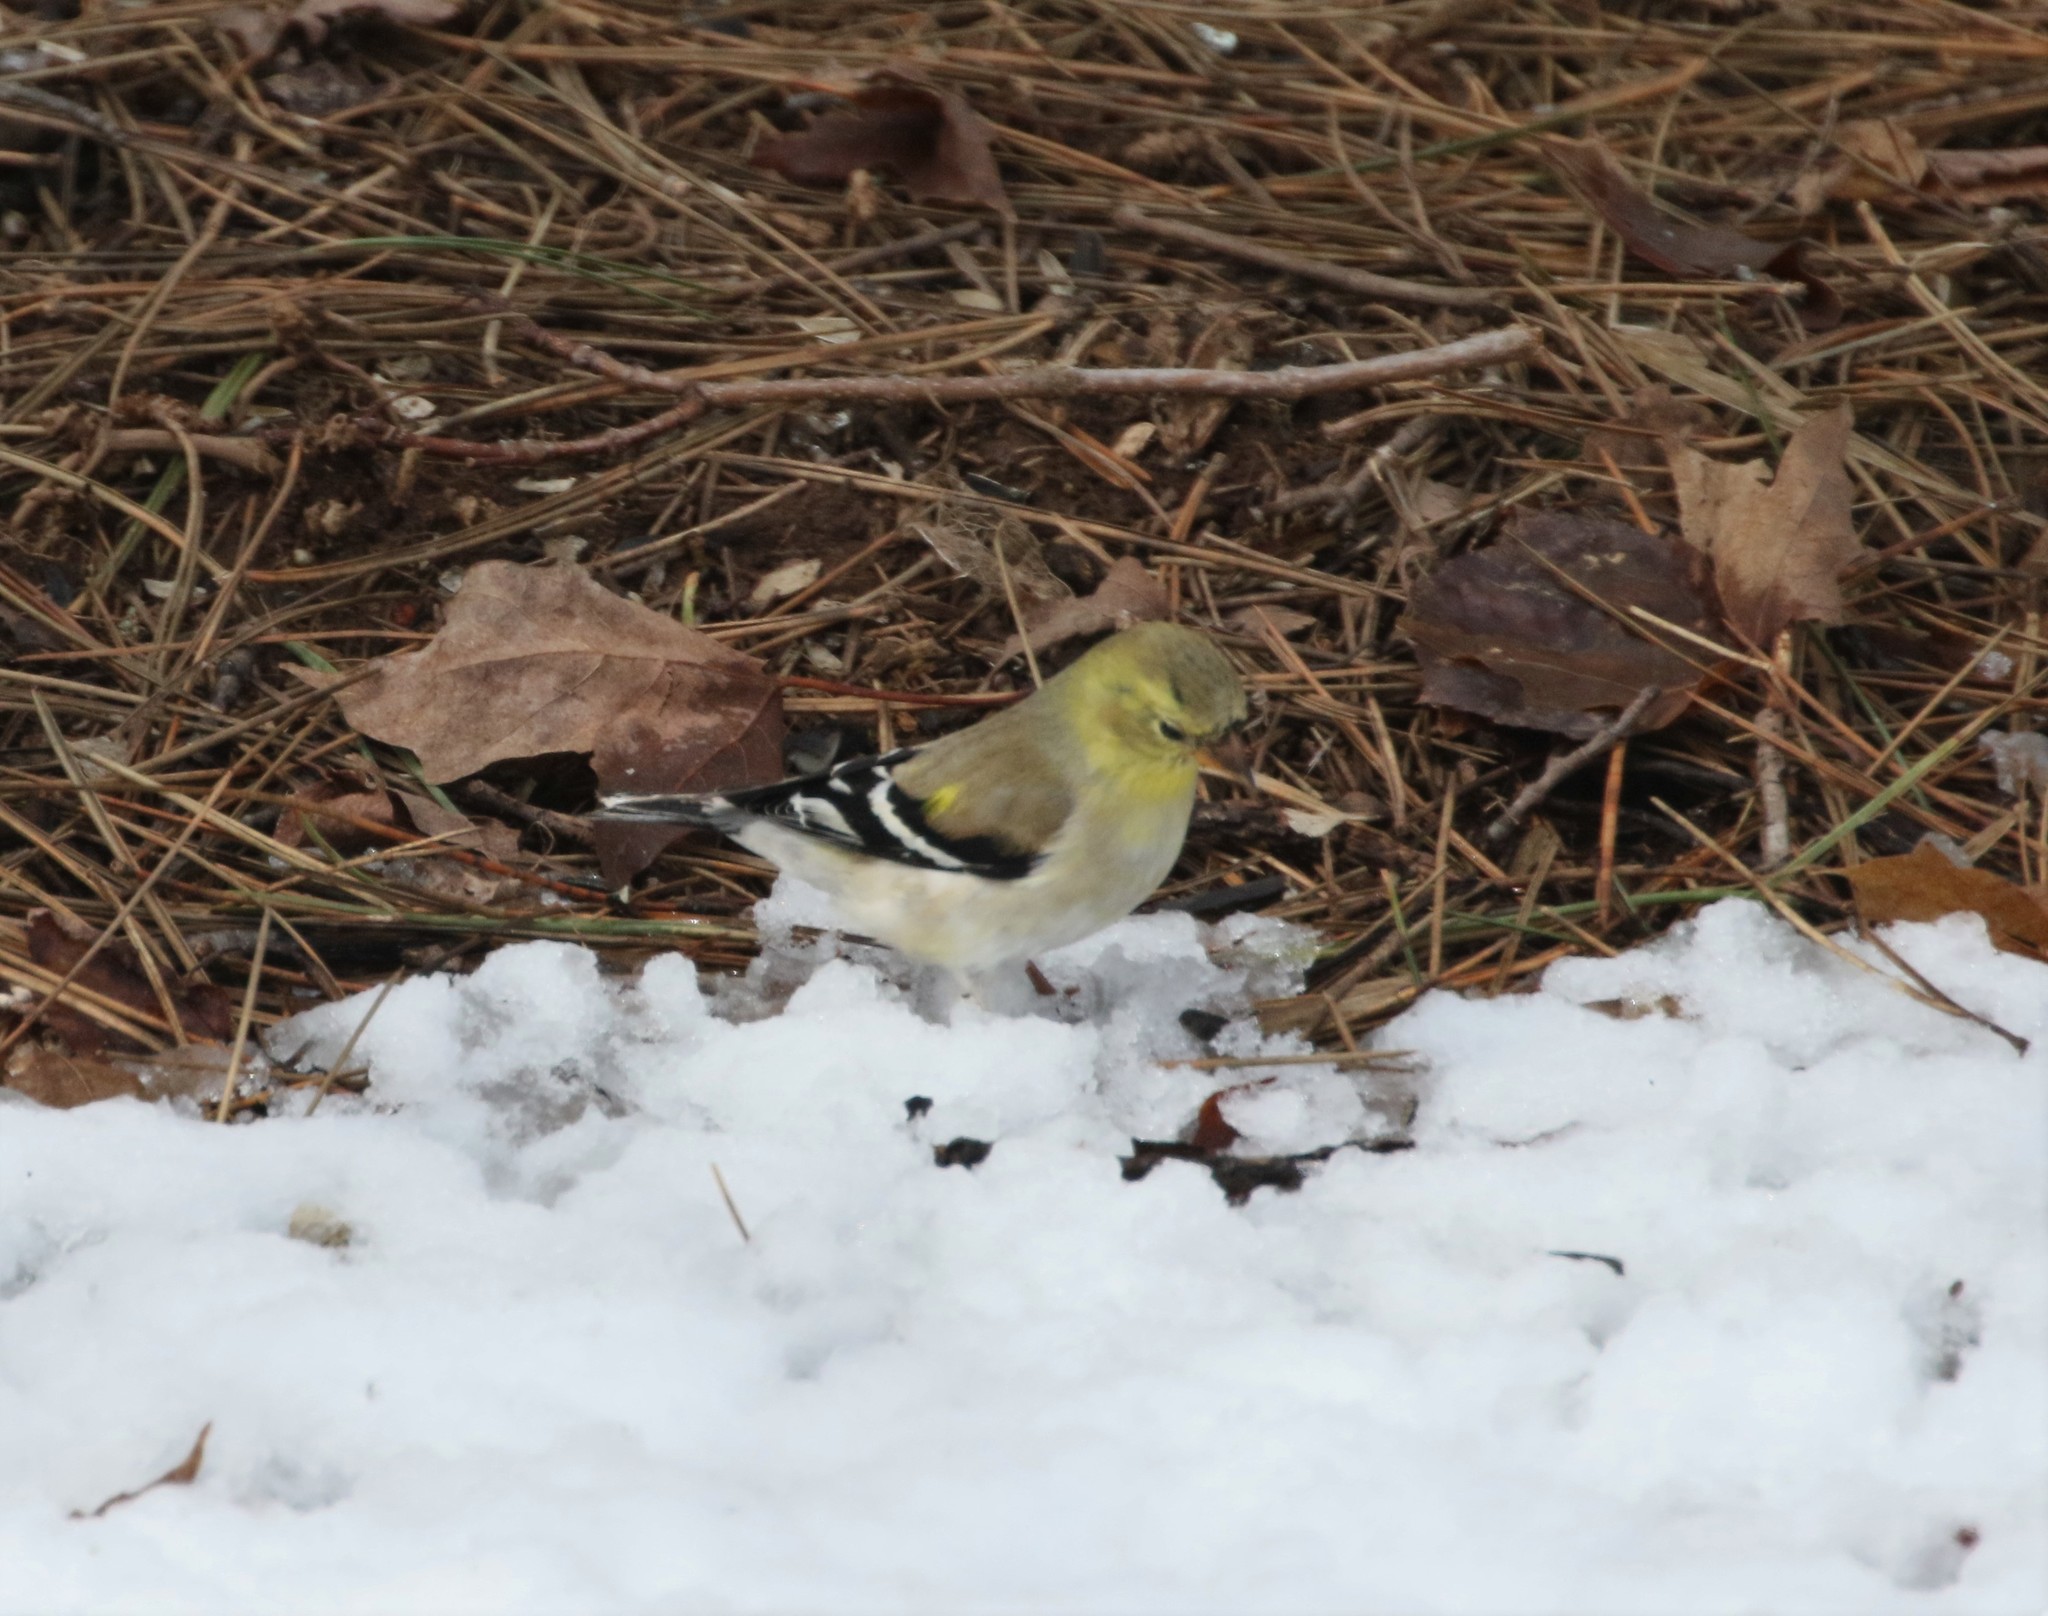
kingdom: Animalia
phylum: Chordata
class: Aves
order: Passeriformes
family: Fringillidae
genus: Spinus
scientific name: Spinus tristis
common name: American goldfinch
